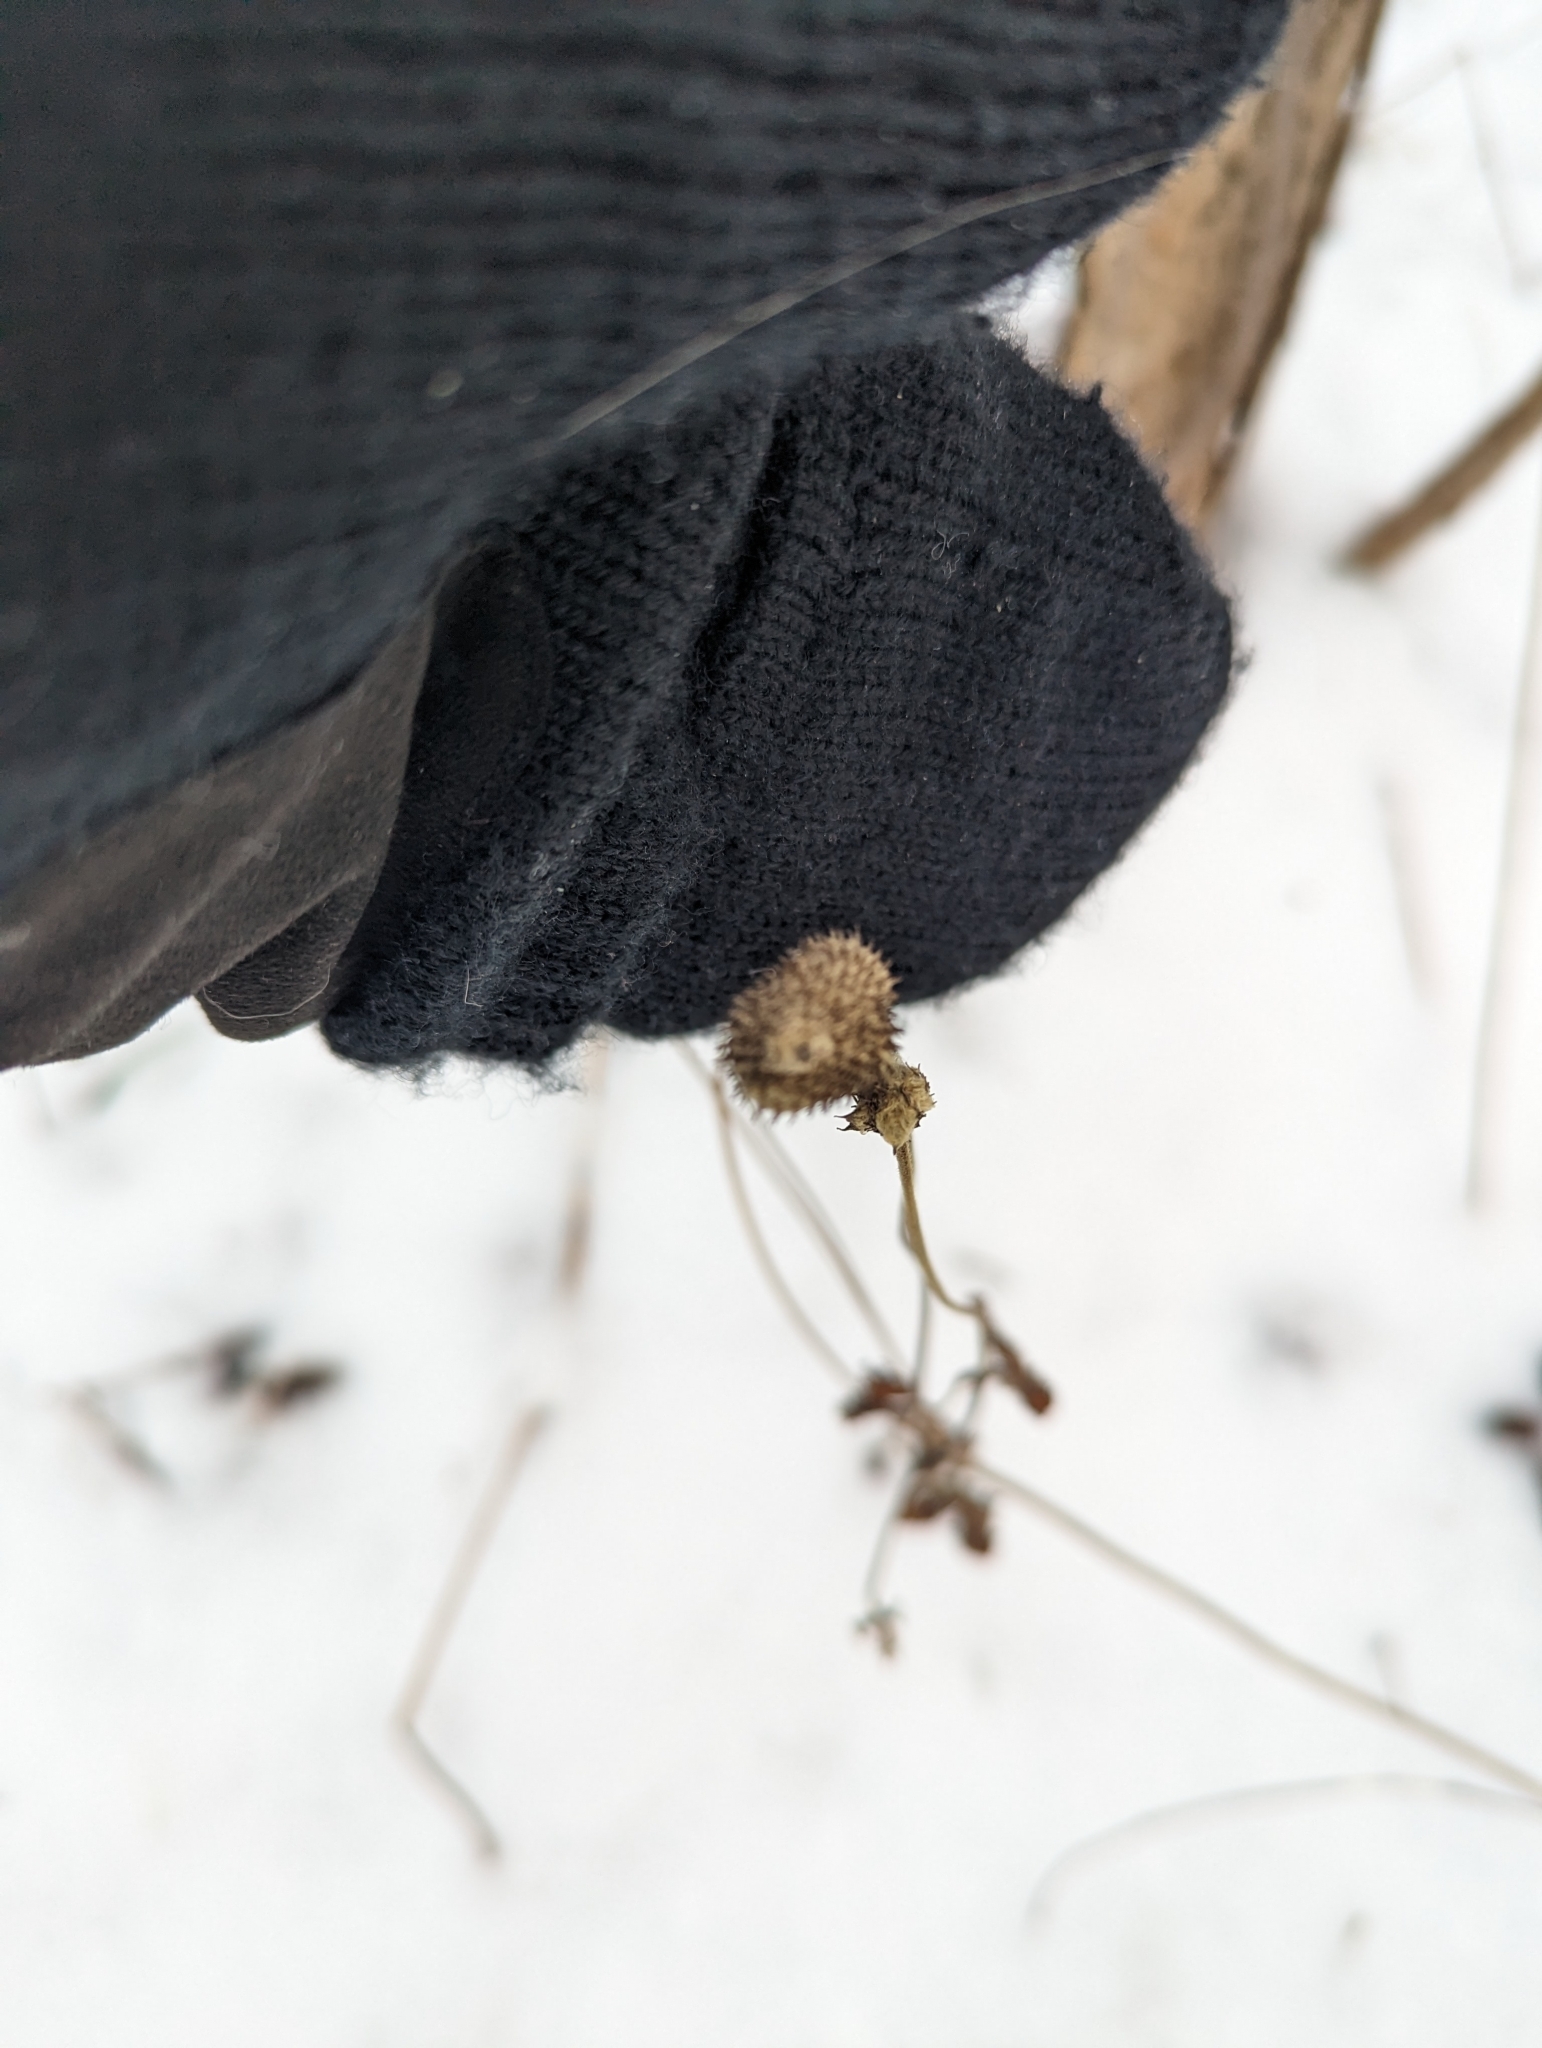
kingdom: Plantae
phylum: Tracheophyta
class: Magnoliopsida
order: Ranunculales
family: Ranunculaceae
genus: Anemone
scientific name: Anemone virginiana
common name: Tall anemone
